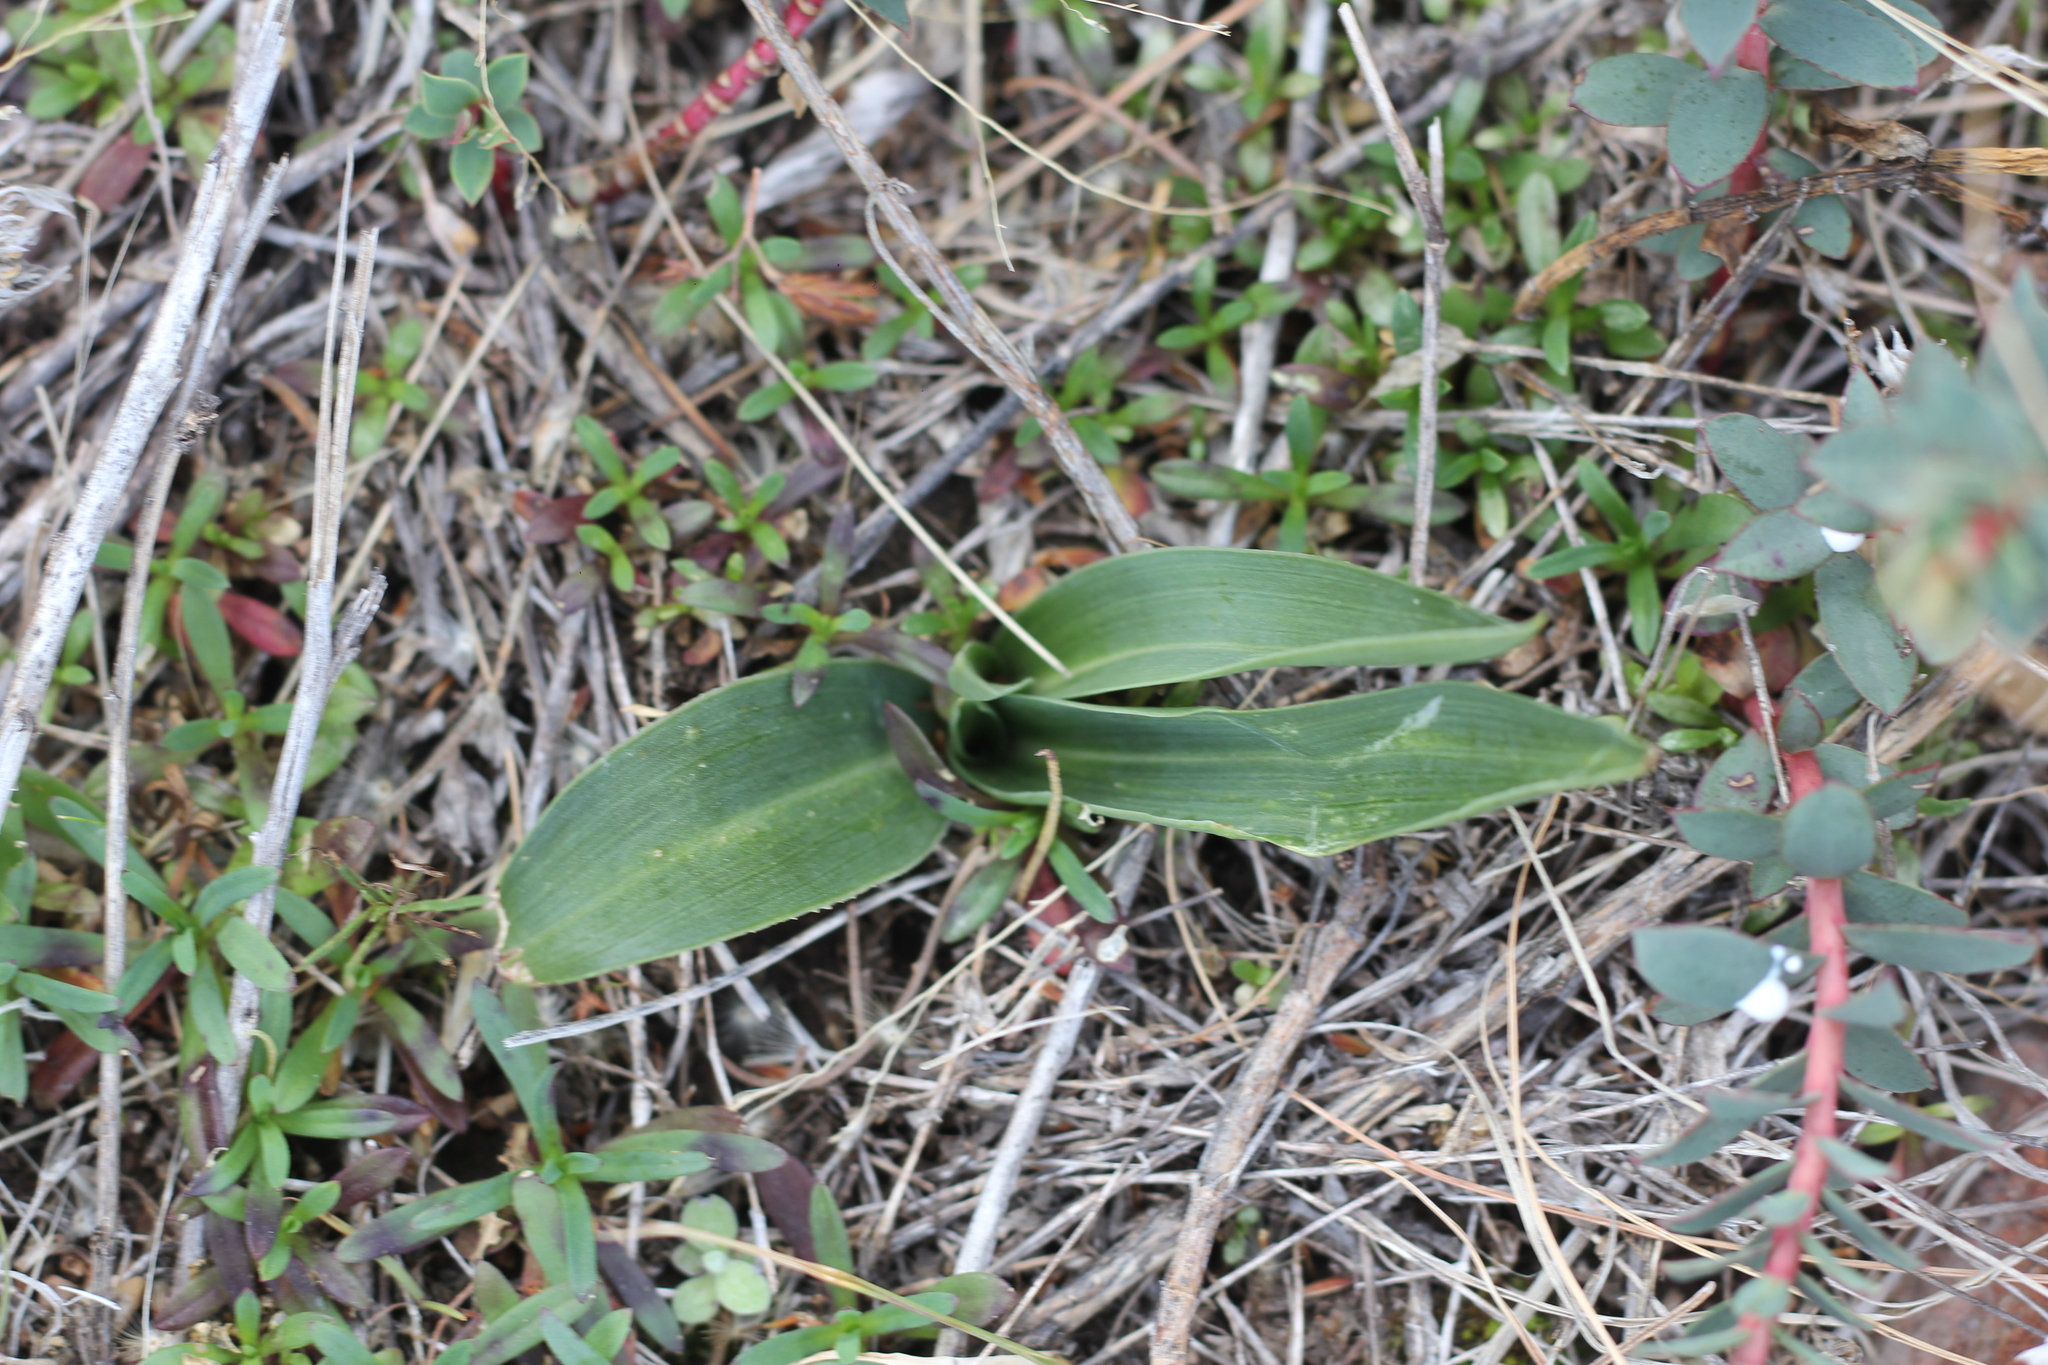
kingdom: Plantae
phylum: Tracheophyta
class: Liliopsida
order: Asparagales
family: Orchidaceae
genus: Brachystele
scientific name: Brachystele dilatata
